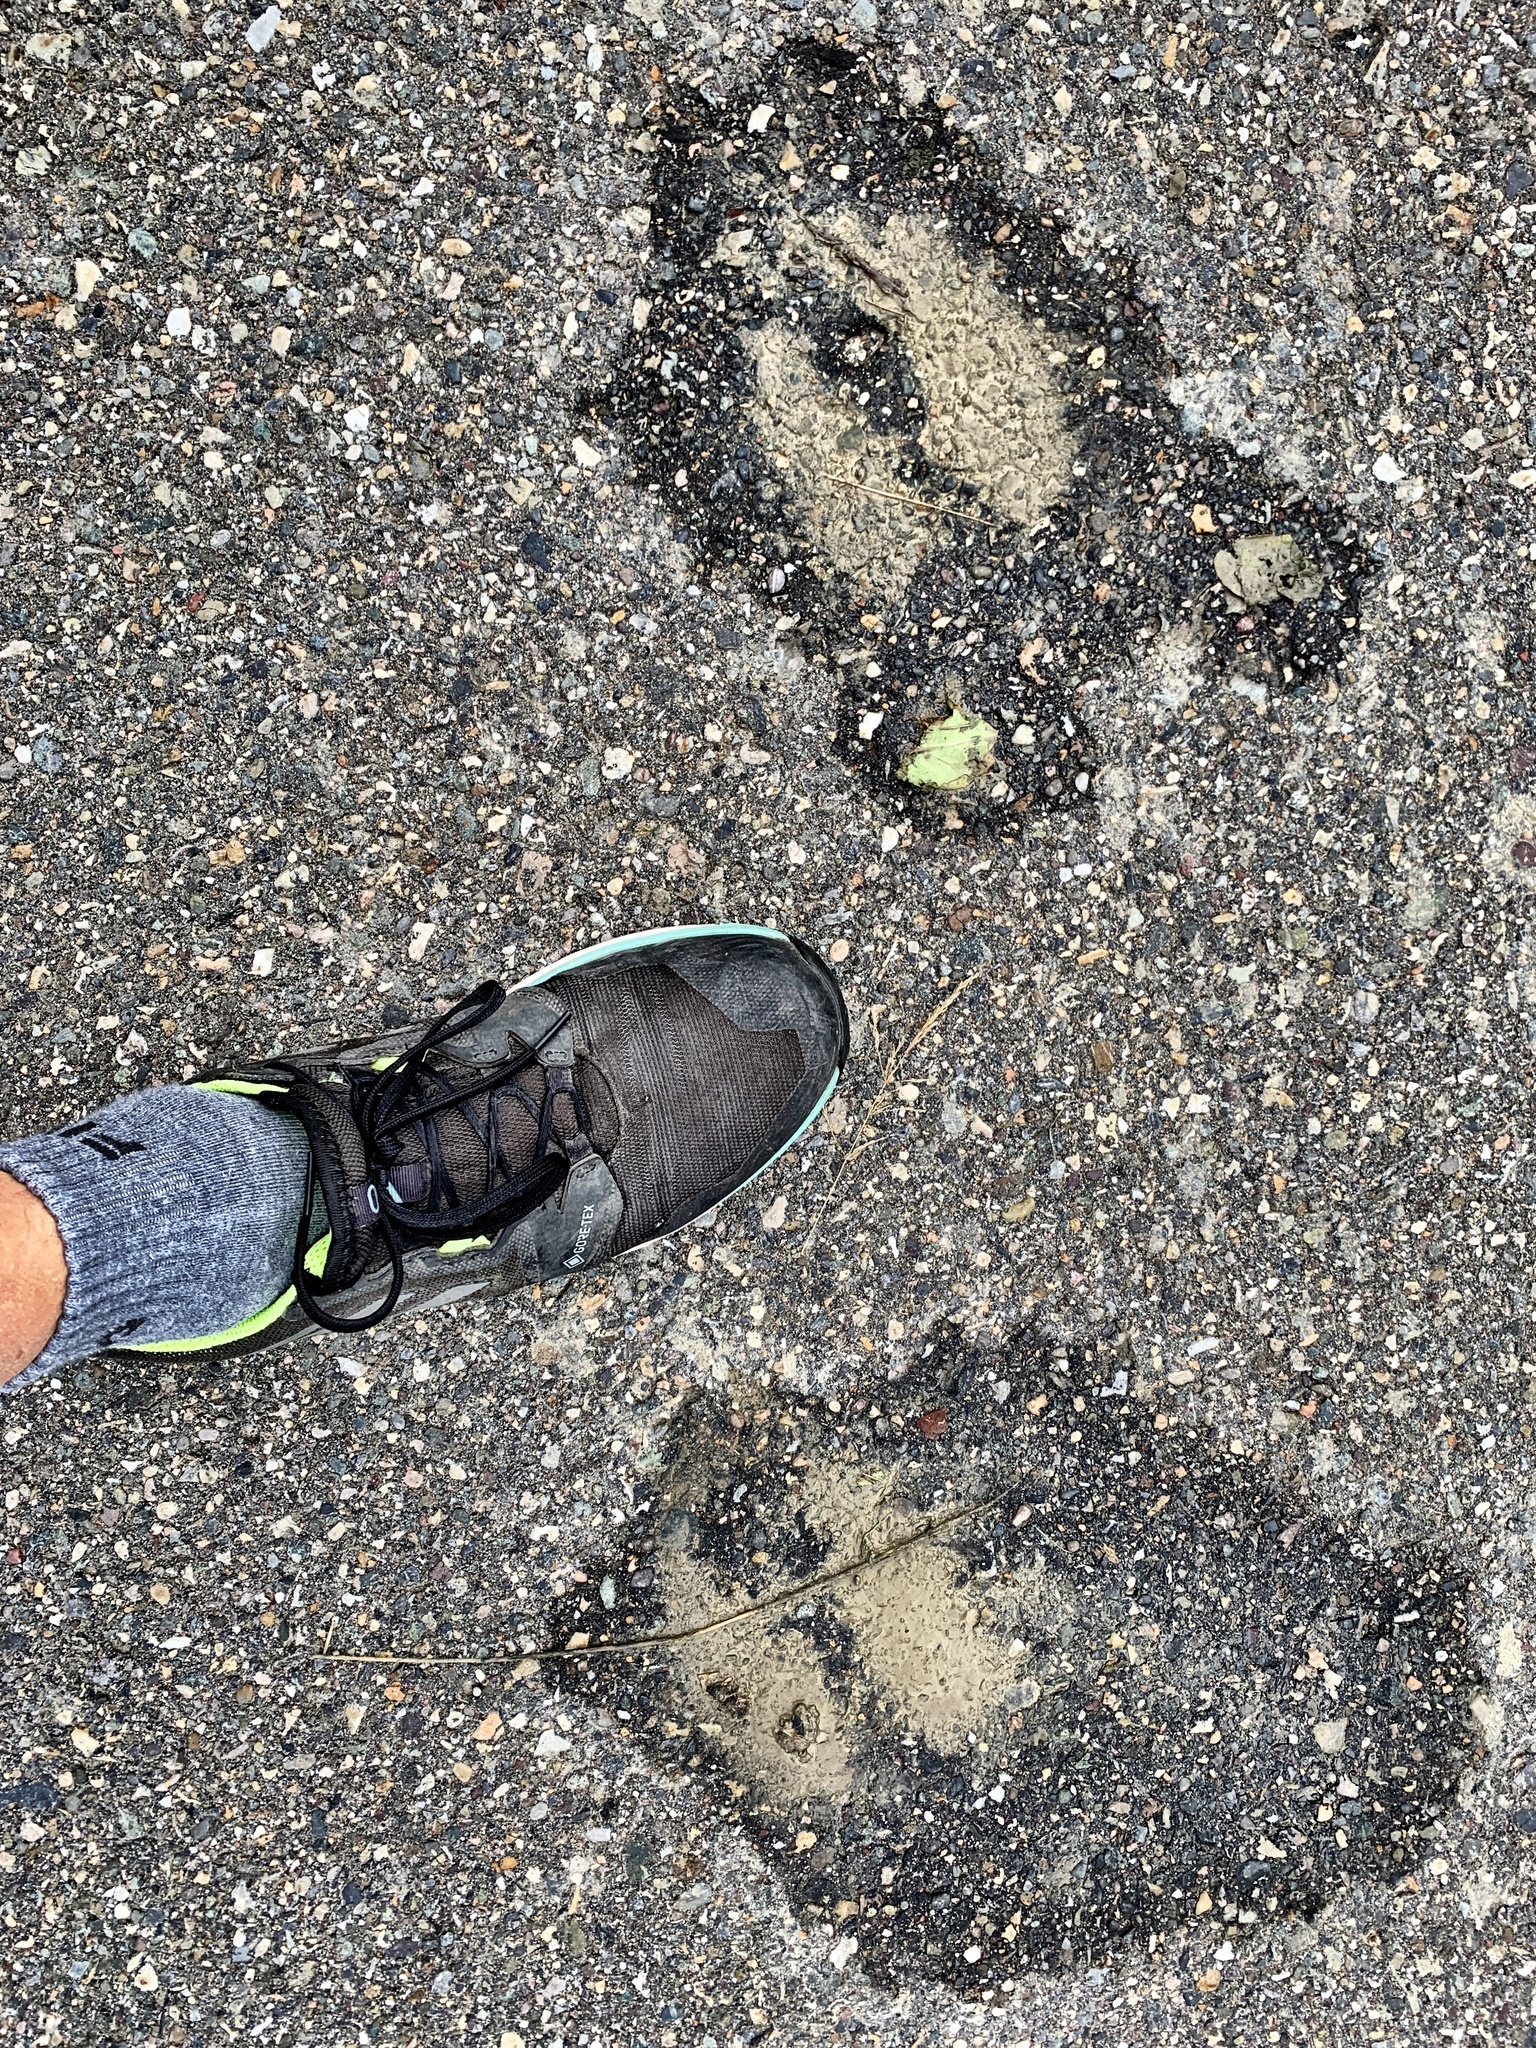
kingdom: Animalia
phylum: Chordata
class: Mammalia
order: Artiodactyla
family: Cervidae
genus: Alces
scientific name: Alces alces
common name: Moose
